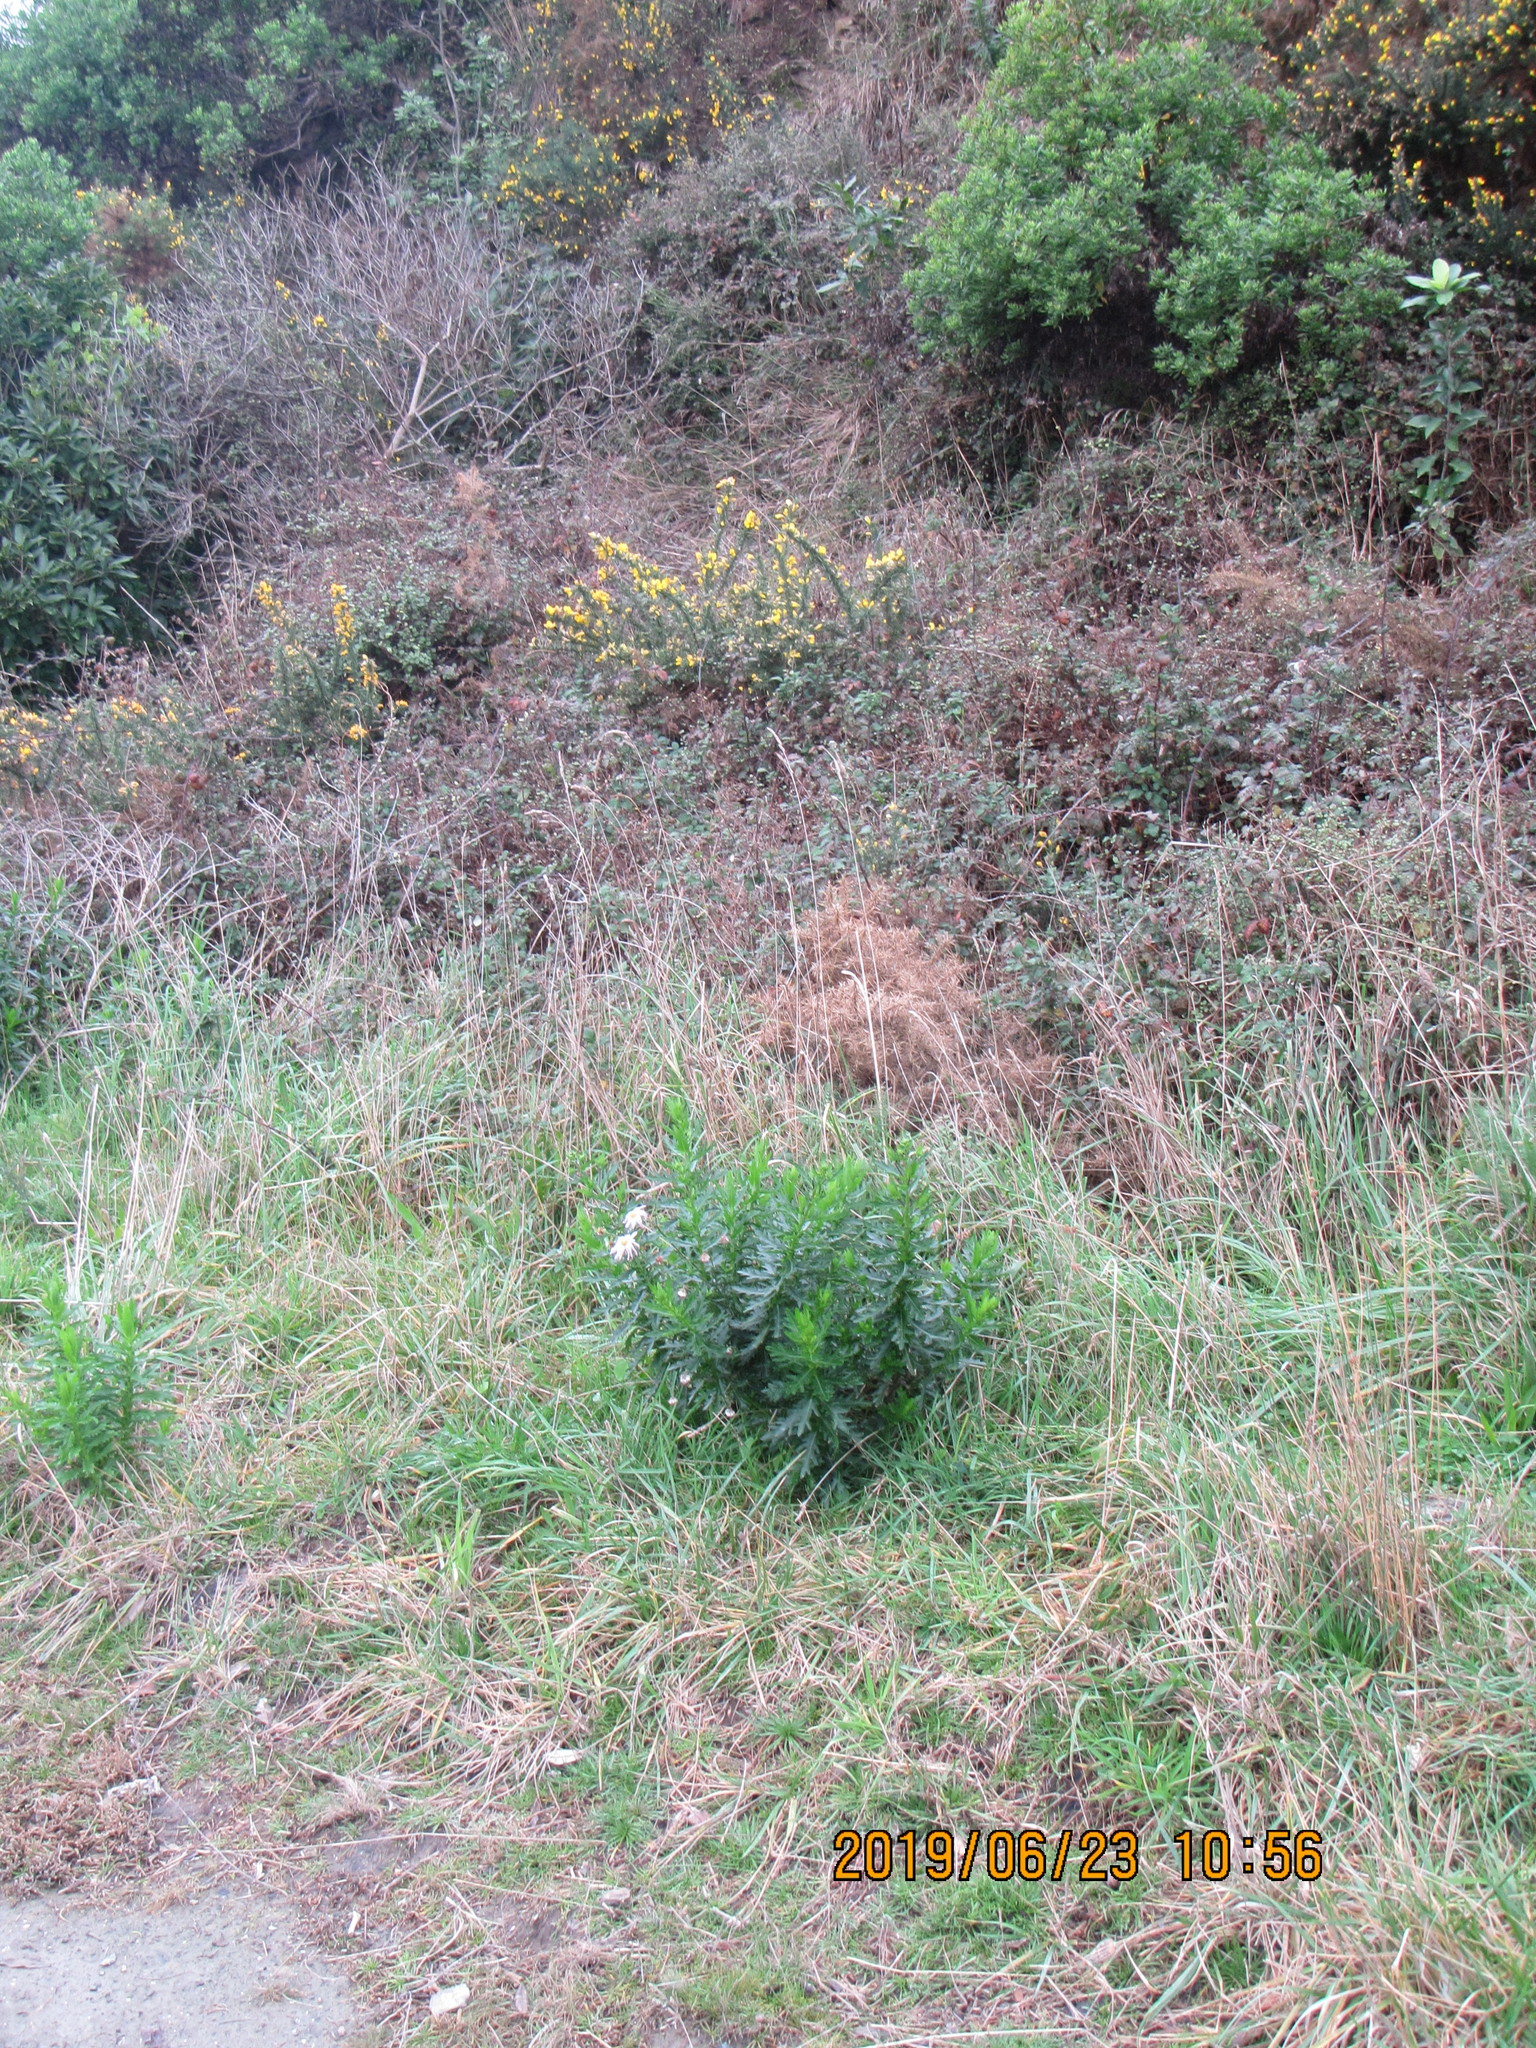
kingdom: Plantae
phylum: Tracheophyta
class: Magnoliopsida
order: Asterales
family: Asteraceae
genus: Senecio
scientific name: Senecio glastifolius
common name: Woad-leaved ragwort
